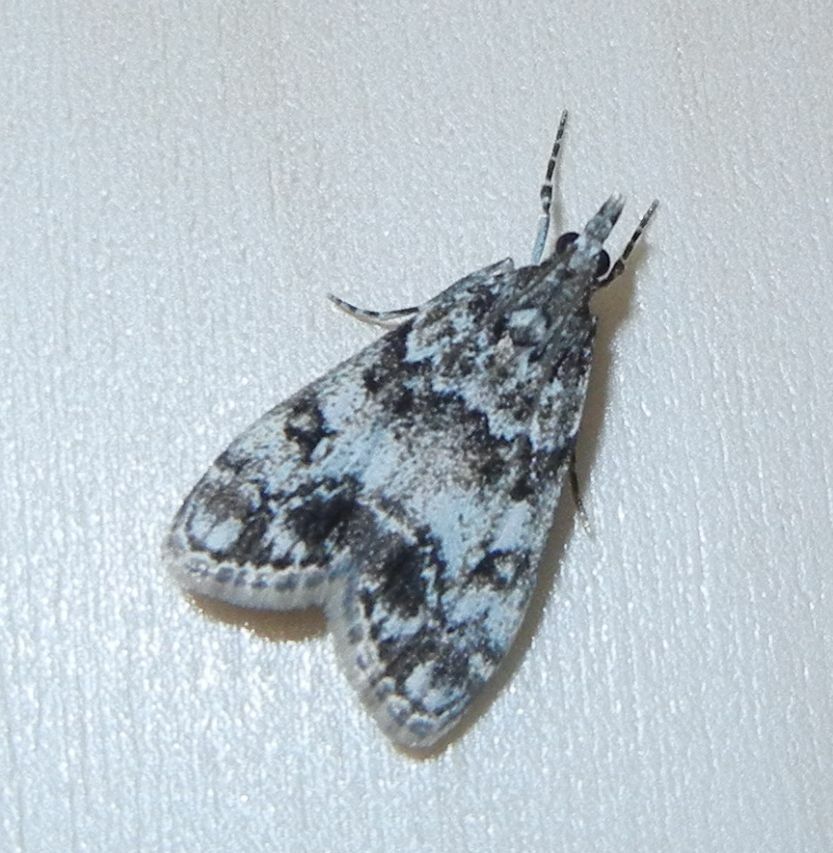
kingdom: Animalia
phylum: Arthropoda
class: Insecta
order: Lepidoptera
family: Crambidae
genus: Eudonia
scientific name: Eudonia lacustrata
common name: Little grey
